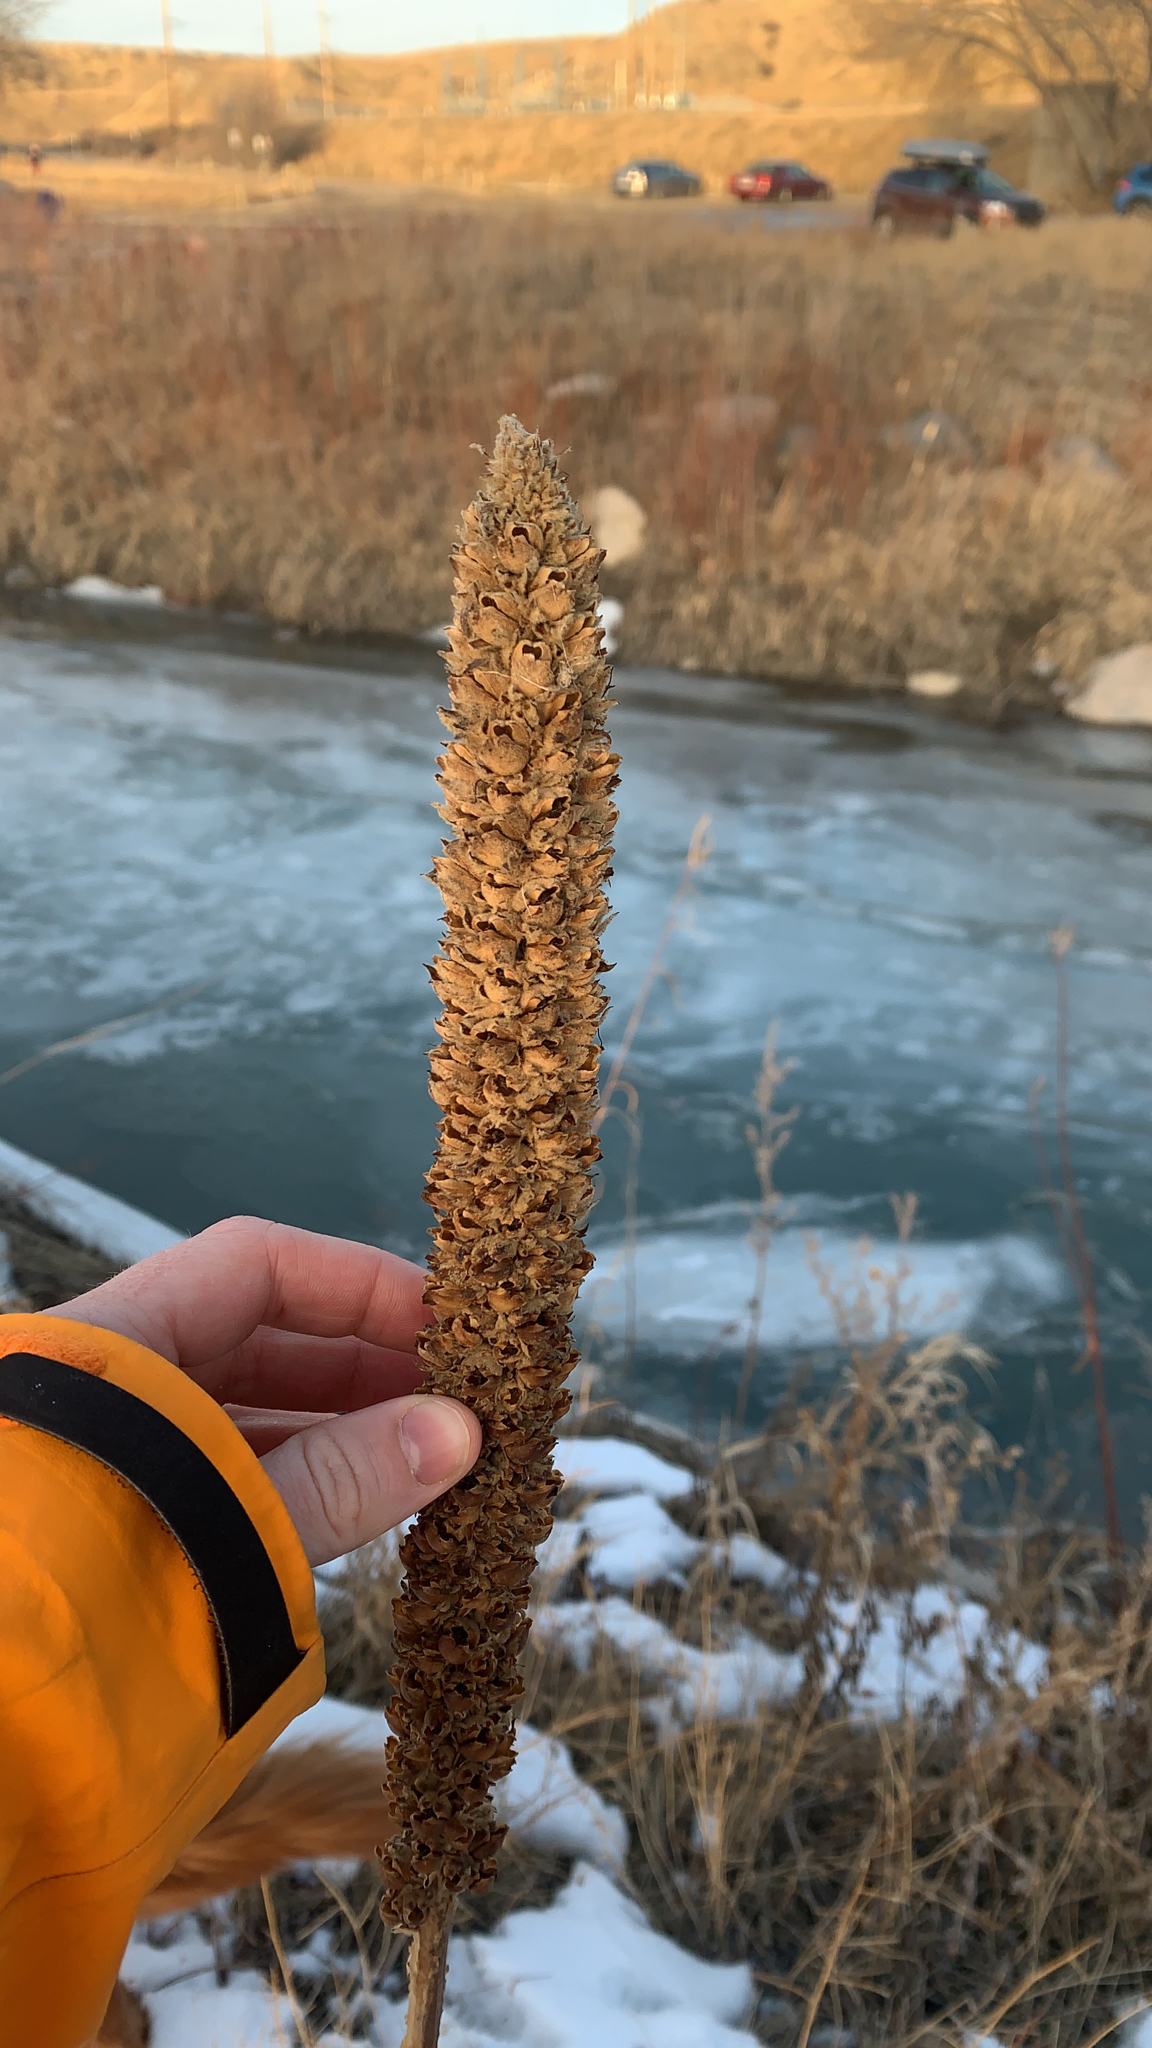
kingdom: Plantae
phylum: Tracheophyta
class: Magnoliopsida
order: Lamiales
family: Scrophulariaceae
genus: Verbascum
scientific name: Verbascum thapsus
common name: Common mullein
